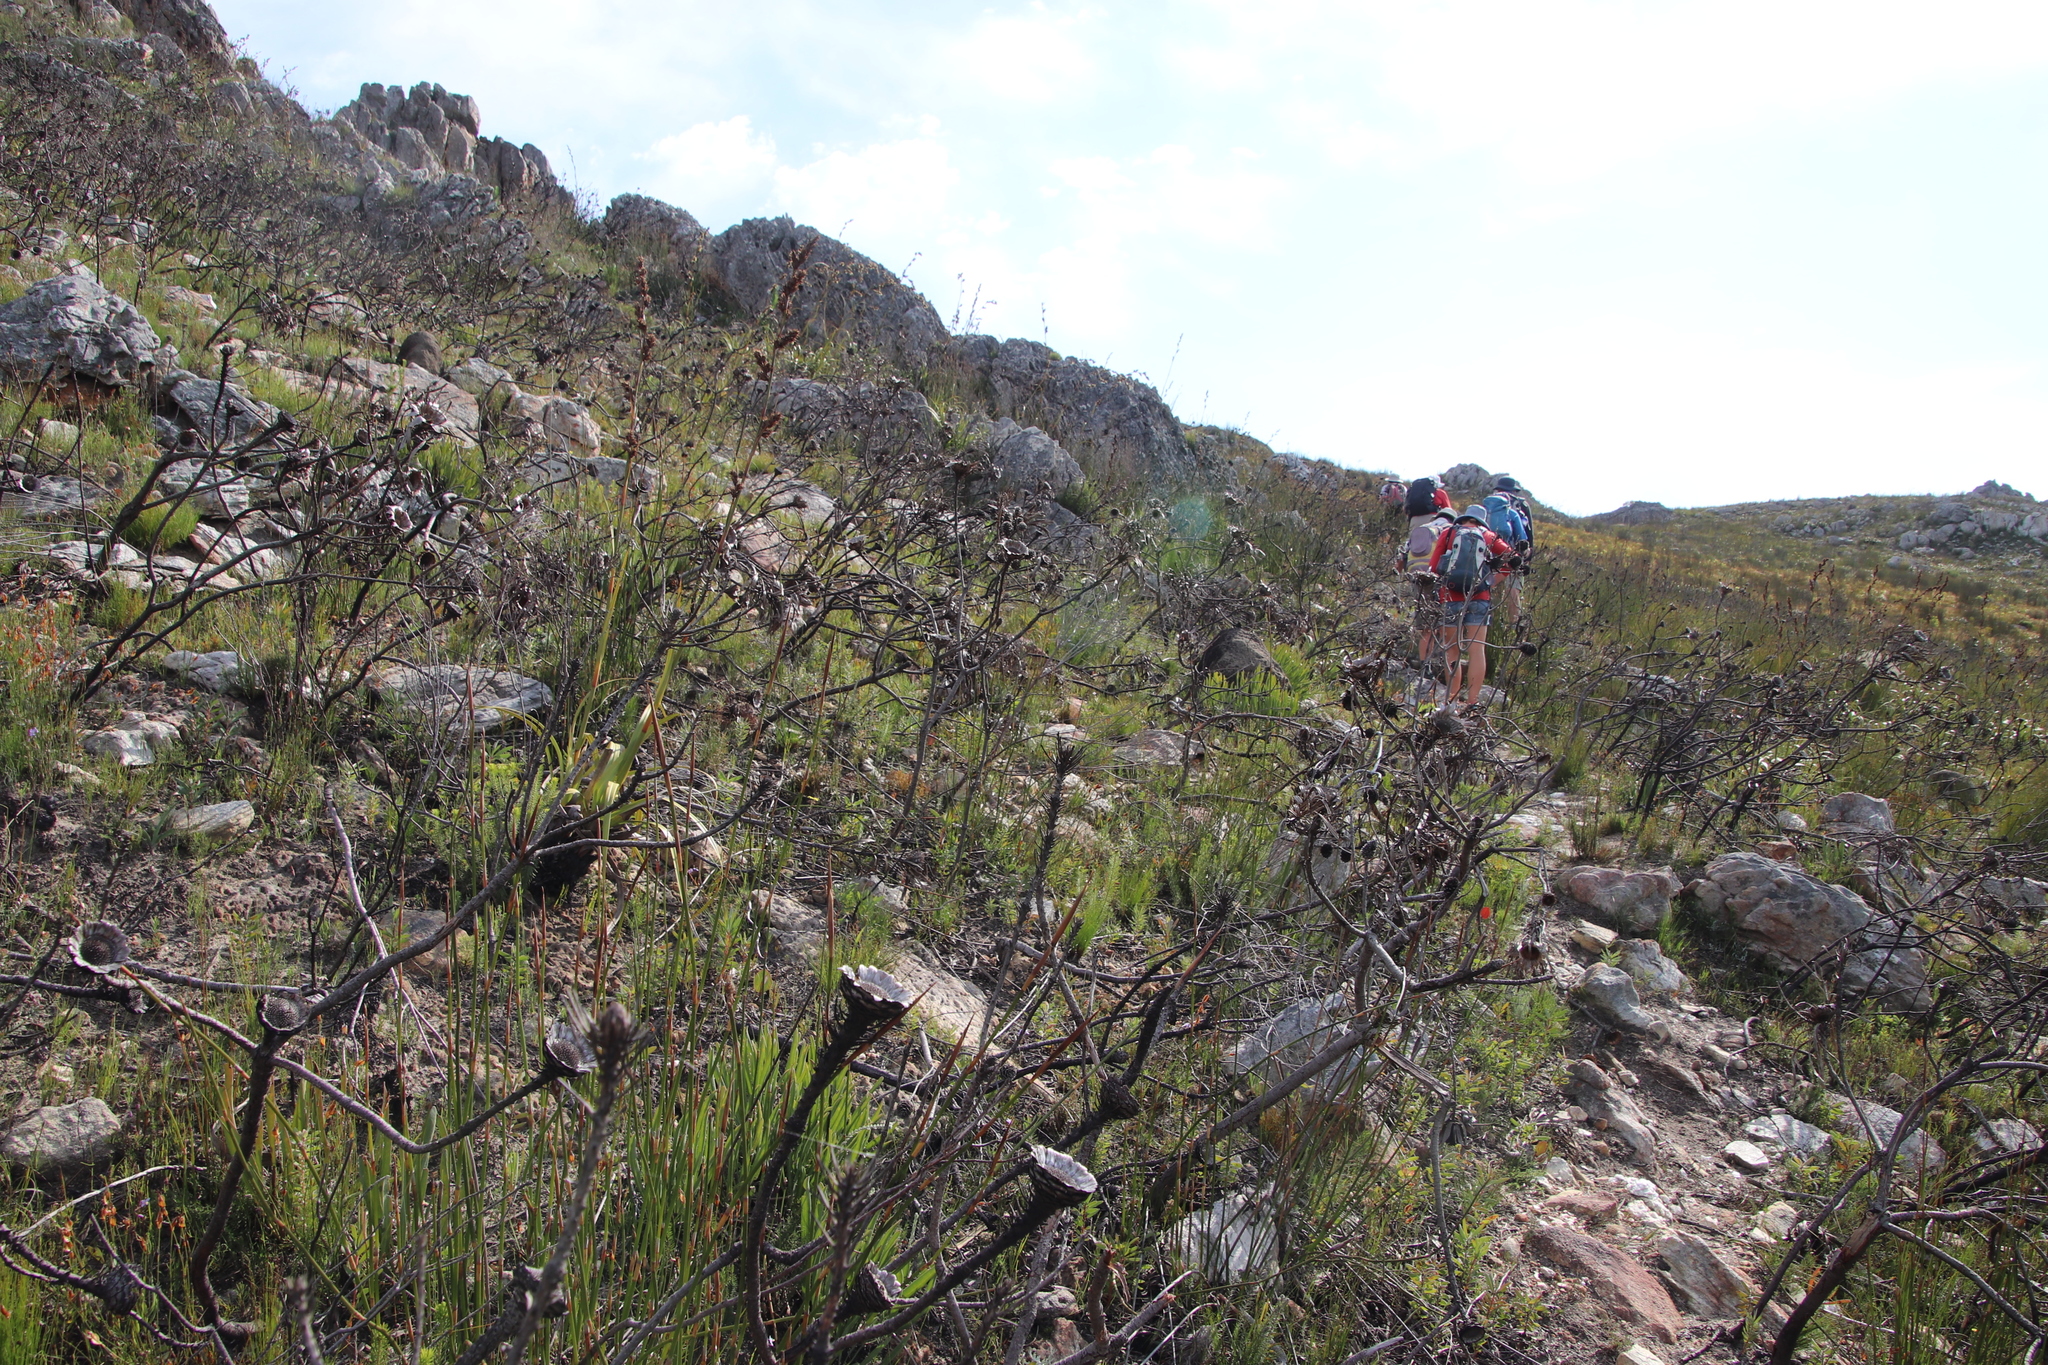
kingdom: Plantae
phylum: Tracheophyta
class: Magnoliopsida
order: Proteales
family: Proteaceae
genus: Protea
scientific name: Protea longifolia
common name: Long-leaf sugarbush
